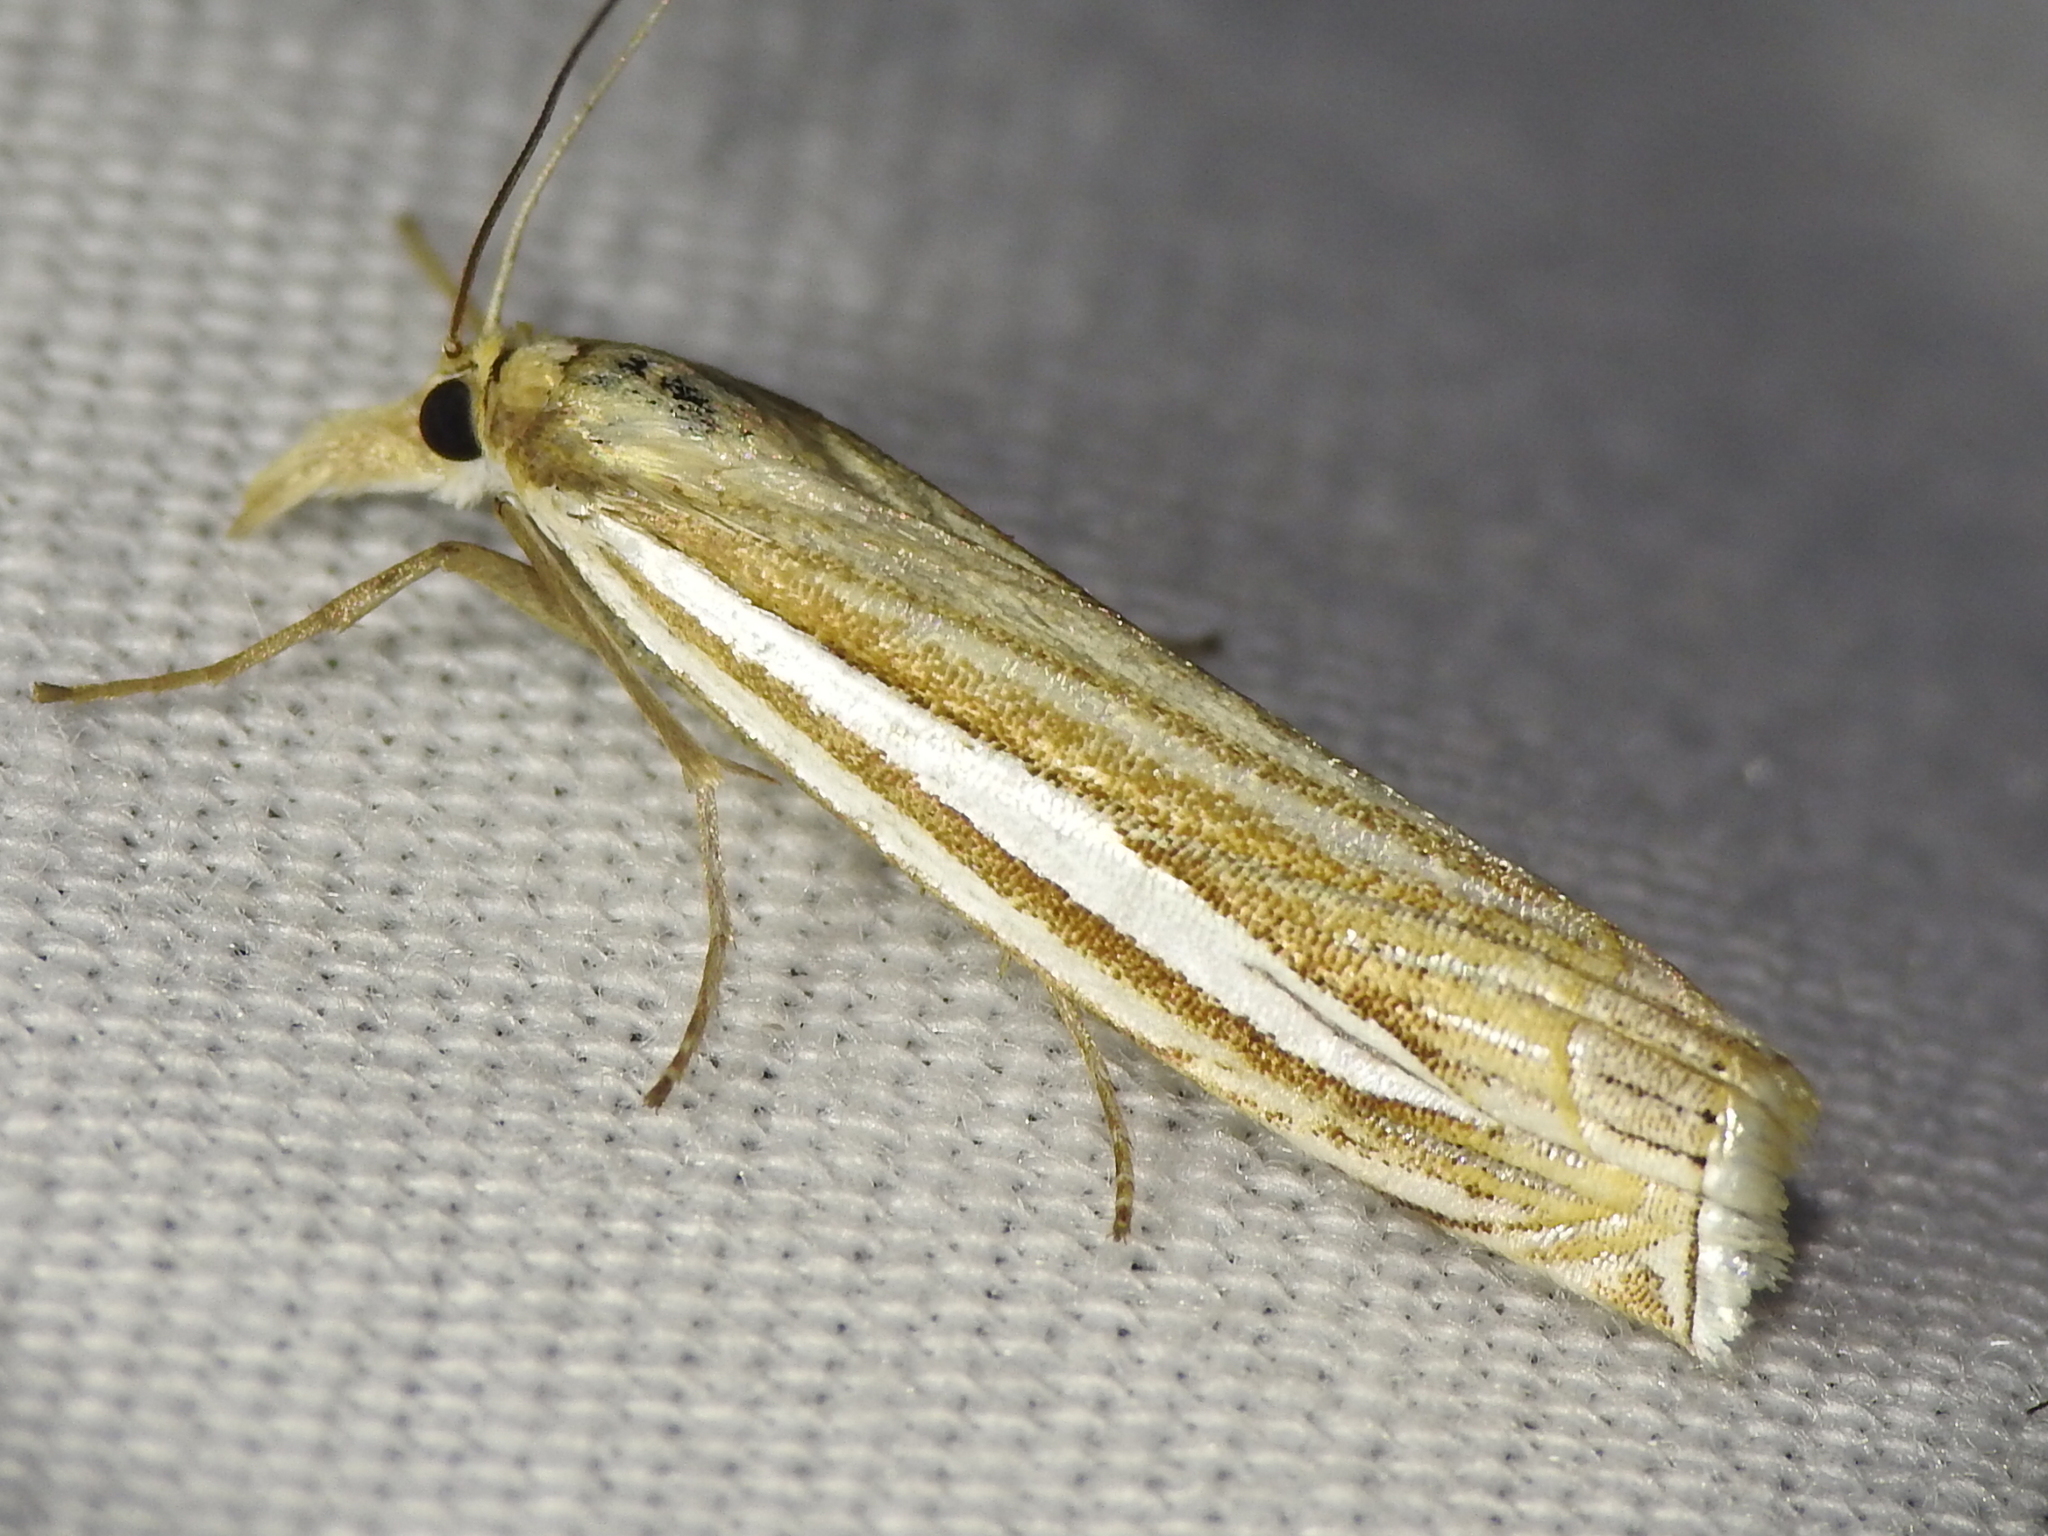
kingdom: Animalia
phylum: Arthropoda
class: Insecta
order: Lepidoptera
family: Crambidae
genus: Crambus
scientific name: Crambus laqueatellus
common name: Eastern grass-veneer
